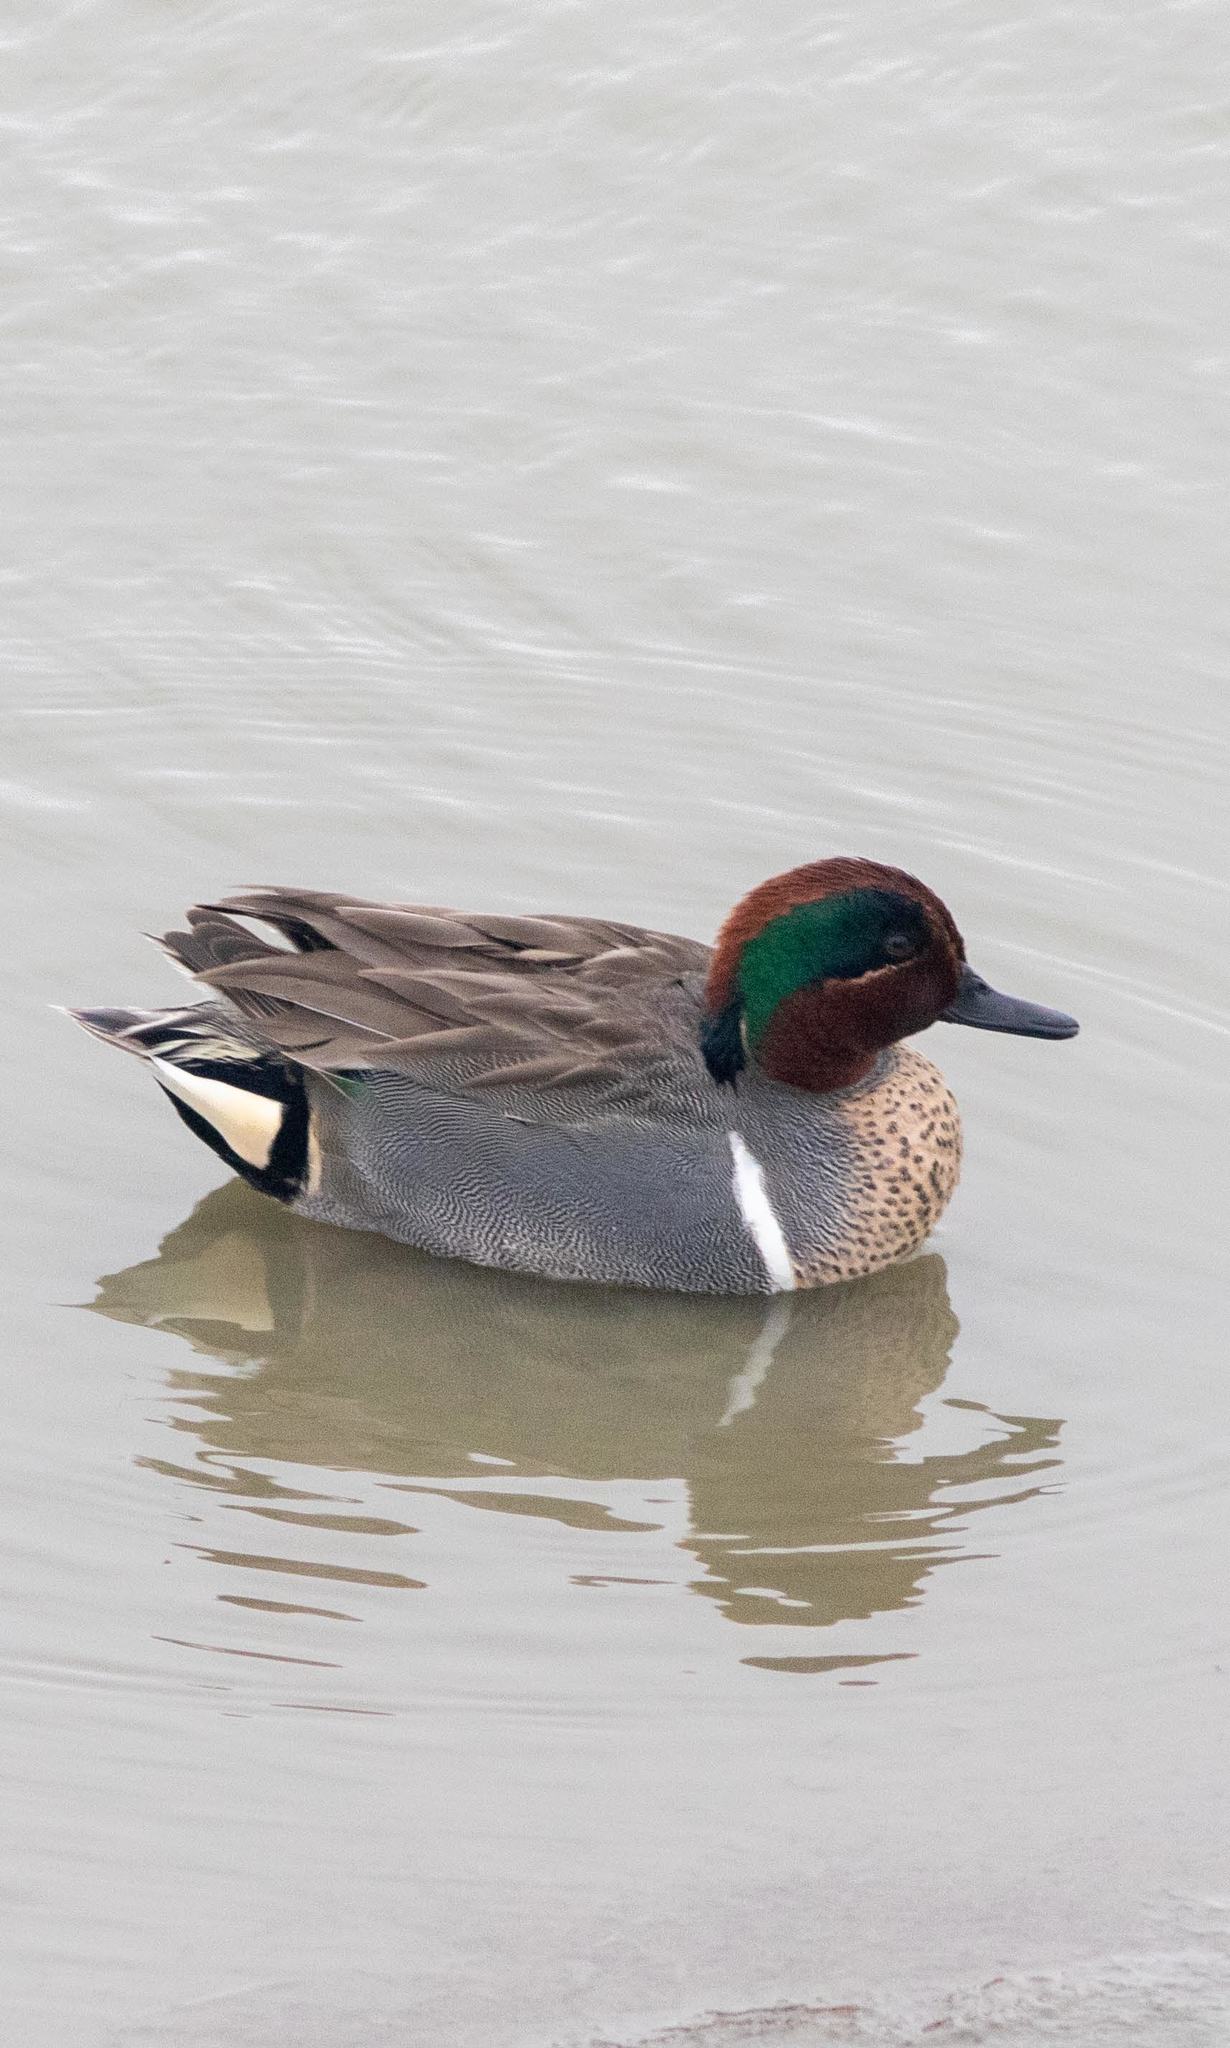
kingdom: Animalia
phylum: Chordata
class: Aves
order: Anseriformes
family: Anatidae
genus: Anas
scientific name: Anas crecca
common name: Eurasian teal
